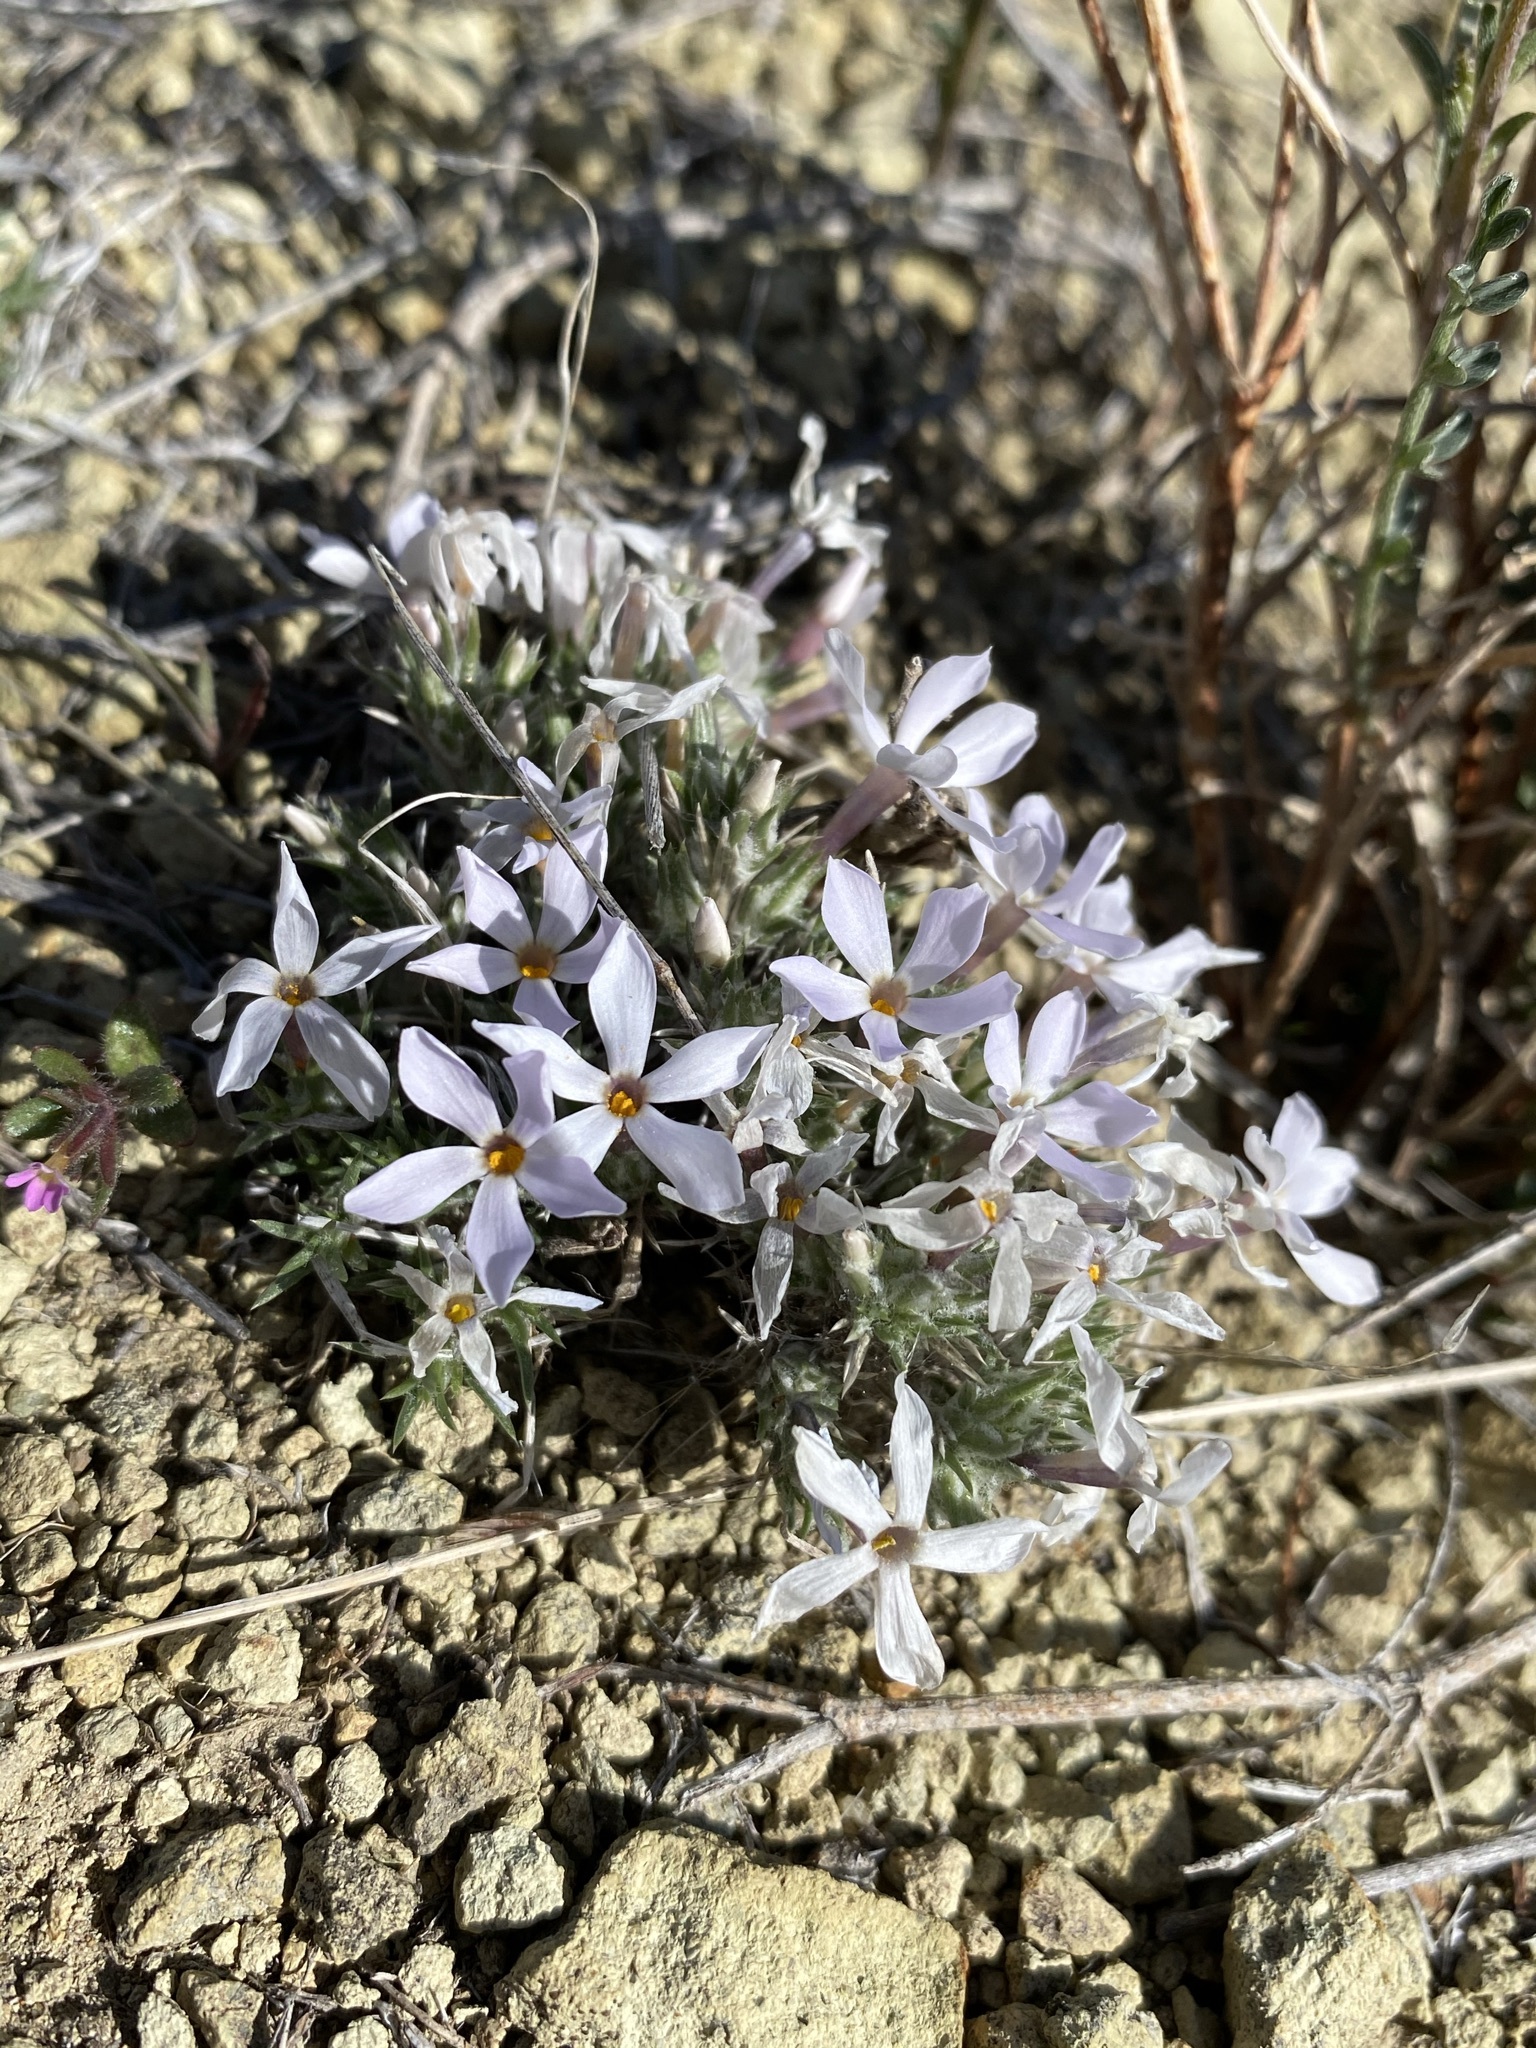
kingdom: Plantae
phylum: Tracheophyta
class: Magnoliopsida
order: Ericales
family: Polemoniaceae
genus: Phlox
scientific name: Phlox hoodii
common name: Moss phlox
